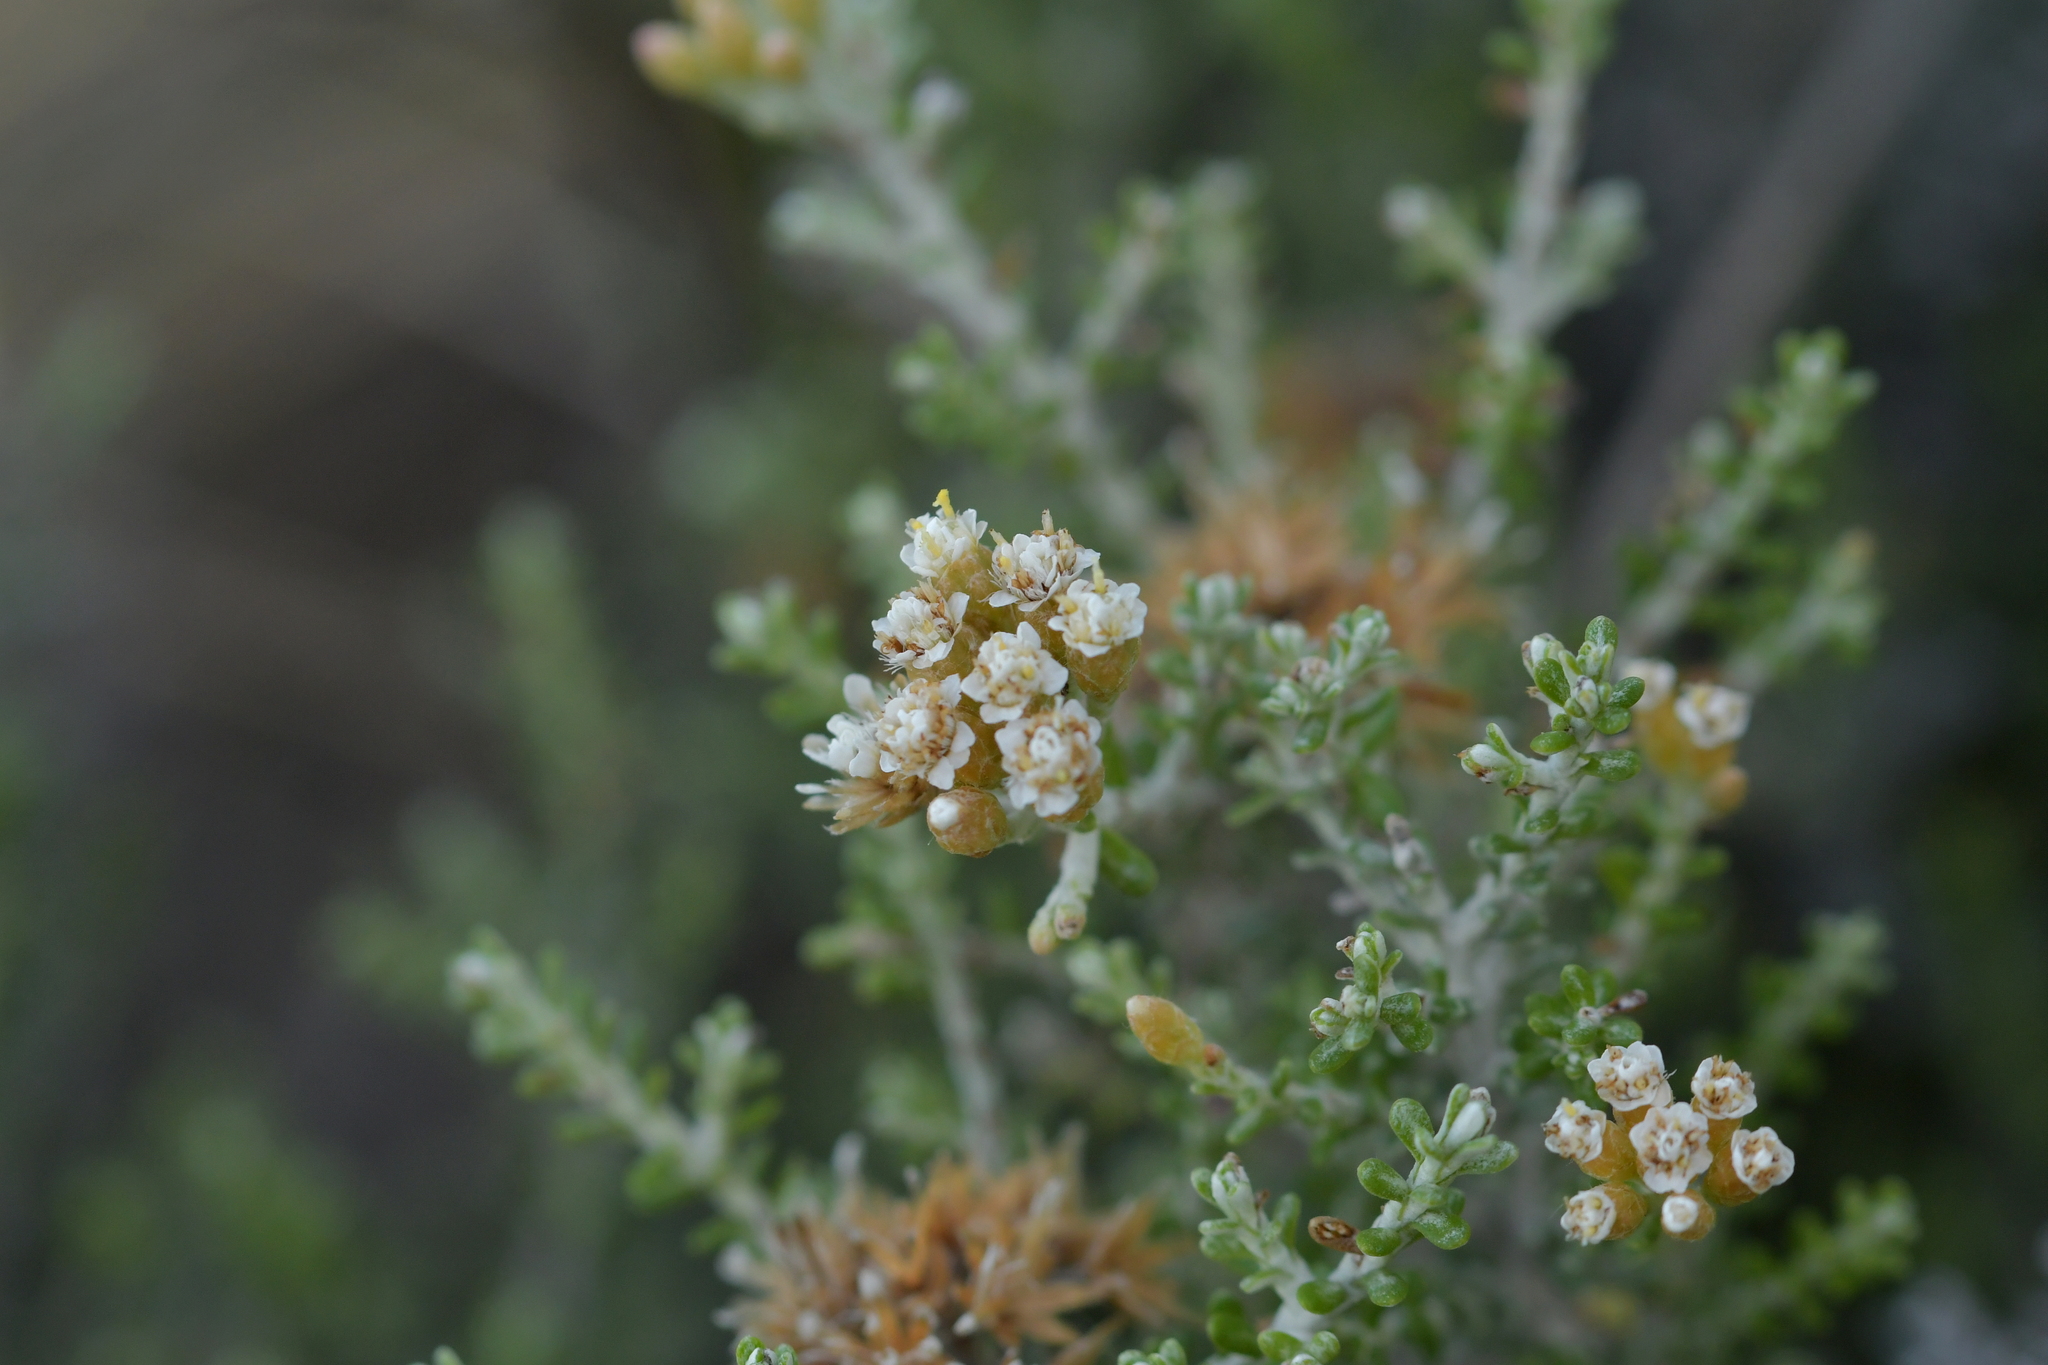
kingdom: Plantae
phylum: Tracheophyta
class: Magnoliopsida
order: Asterales
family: Asteraceae
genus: Ozothamnus
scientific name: Ozothamnus leptophyllus
